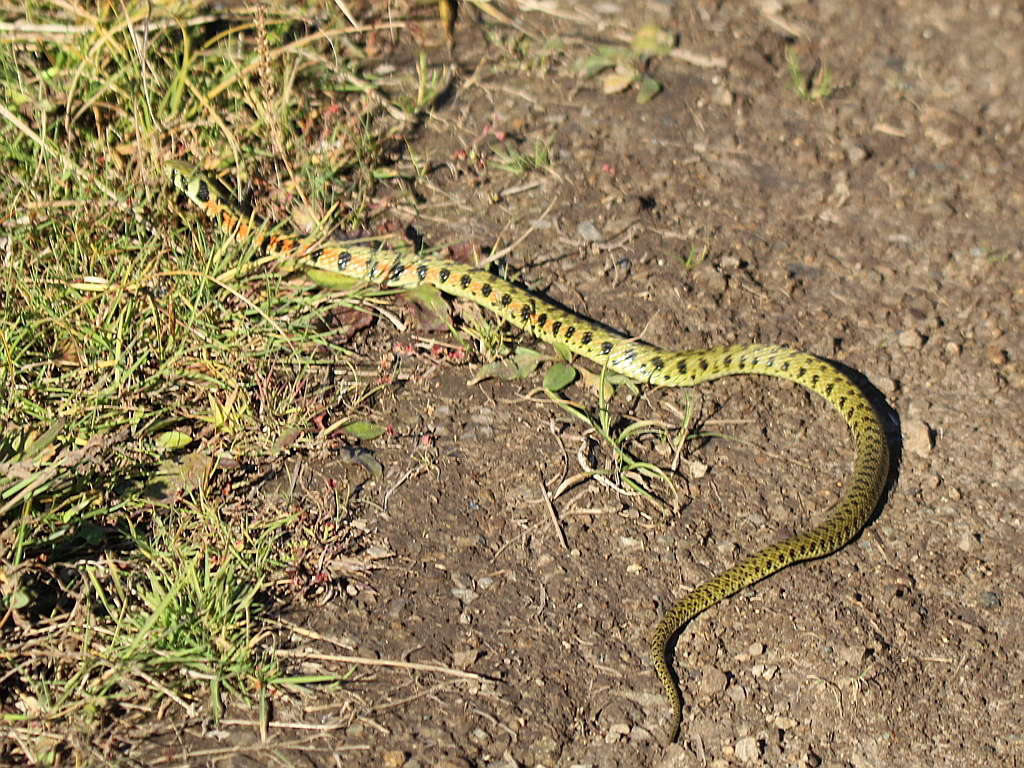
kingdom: Animalia
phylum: Chordata
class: Squamata
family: Colubridae
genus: Rhabdophis
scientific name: Rhabdophis tigrinus
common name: Tiger keelback
